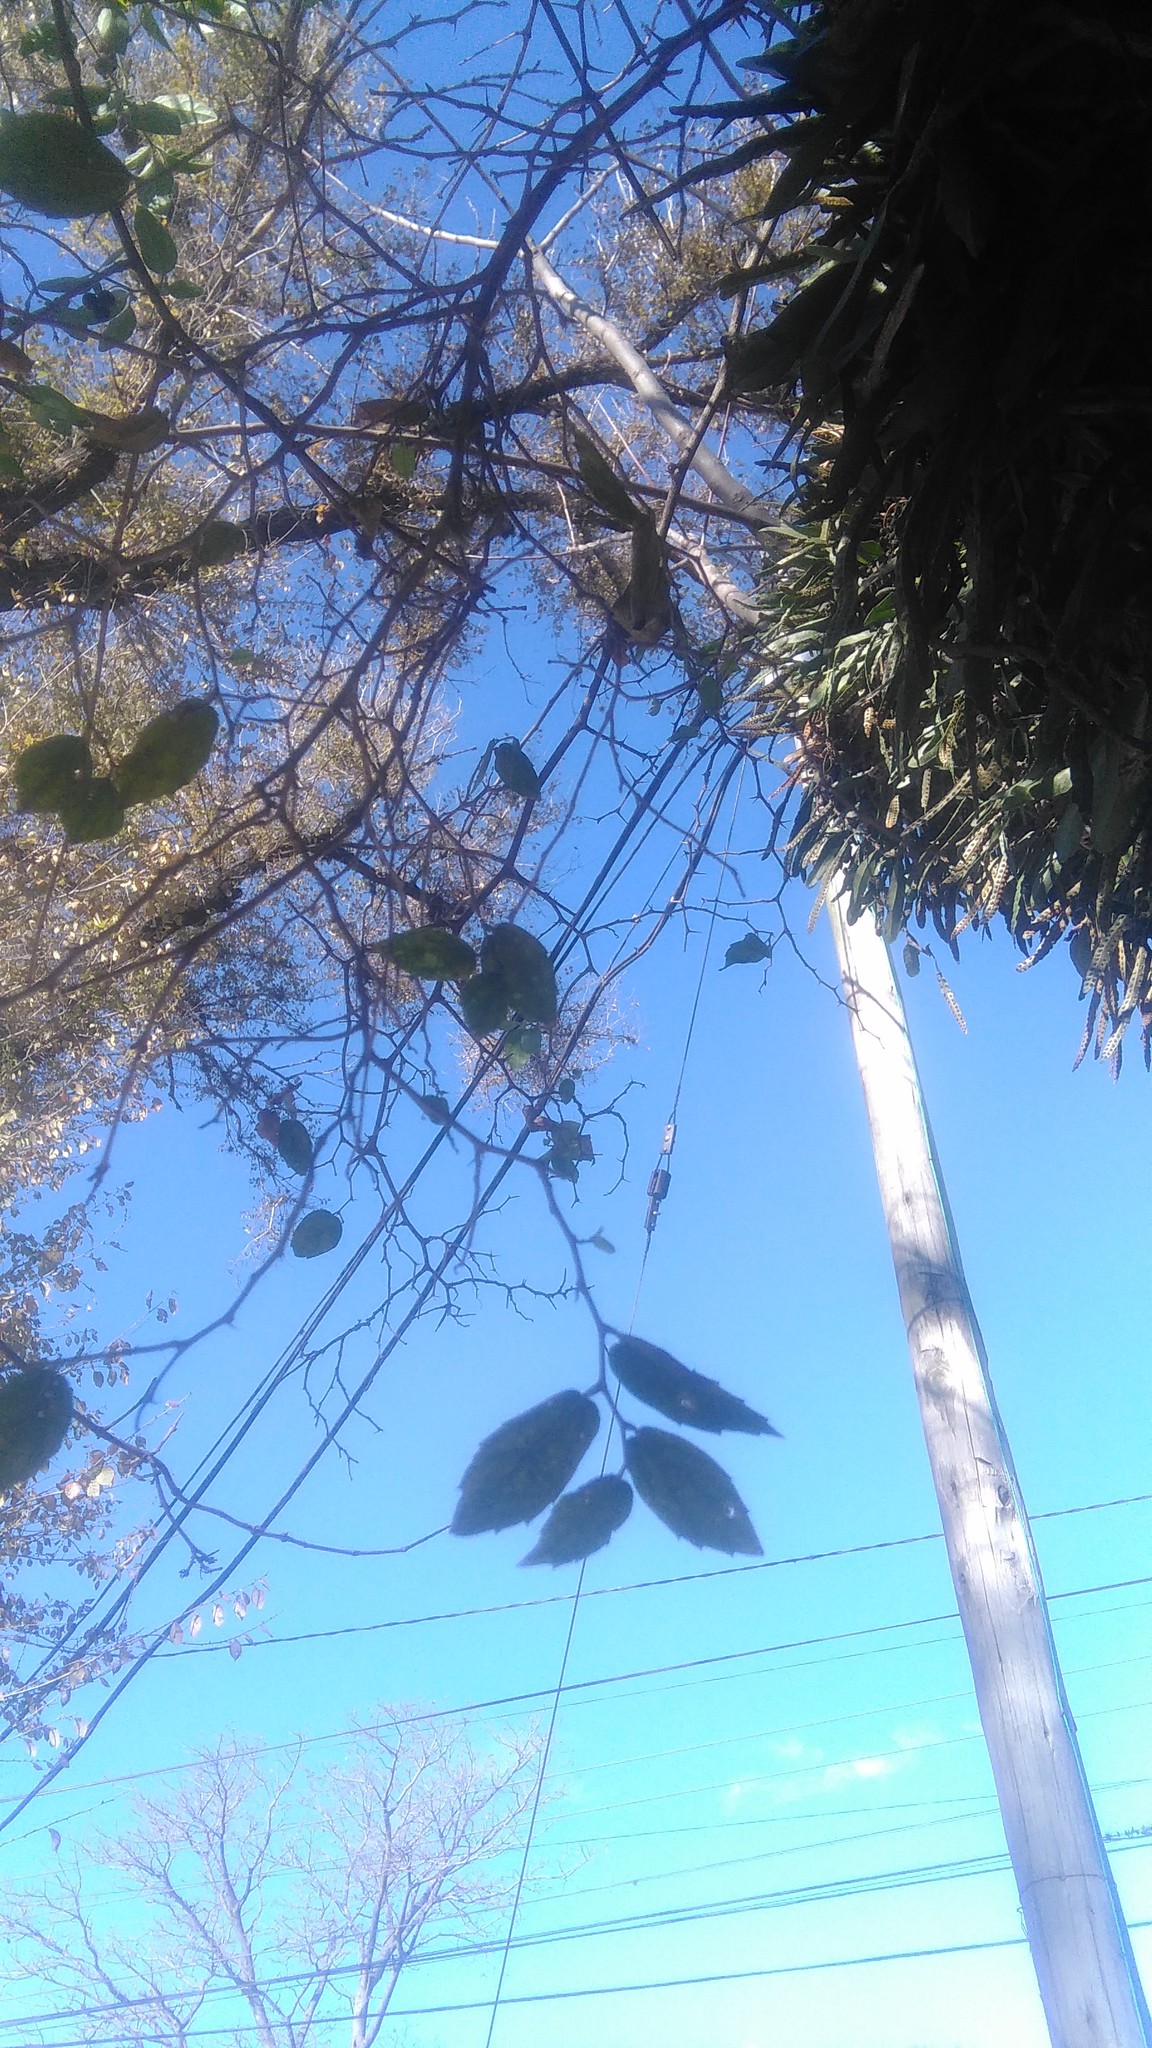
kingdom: Plantae
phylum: Tracheophyta
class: Magnoliopsida
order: Rosales
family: Cannabaceae
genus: Celtis
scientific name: Celtis tala
